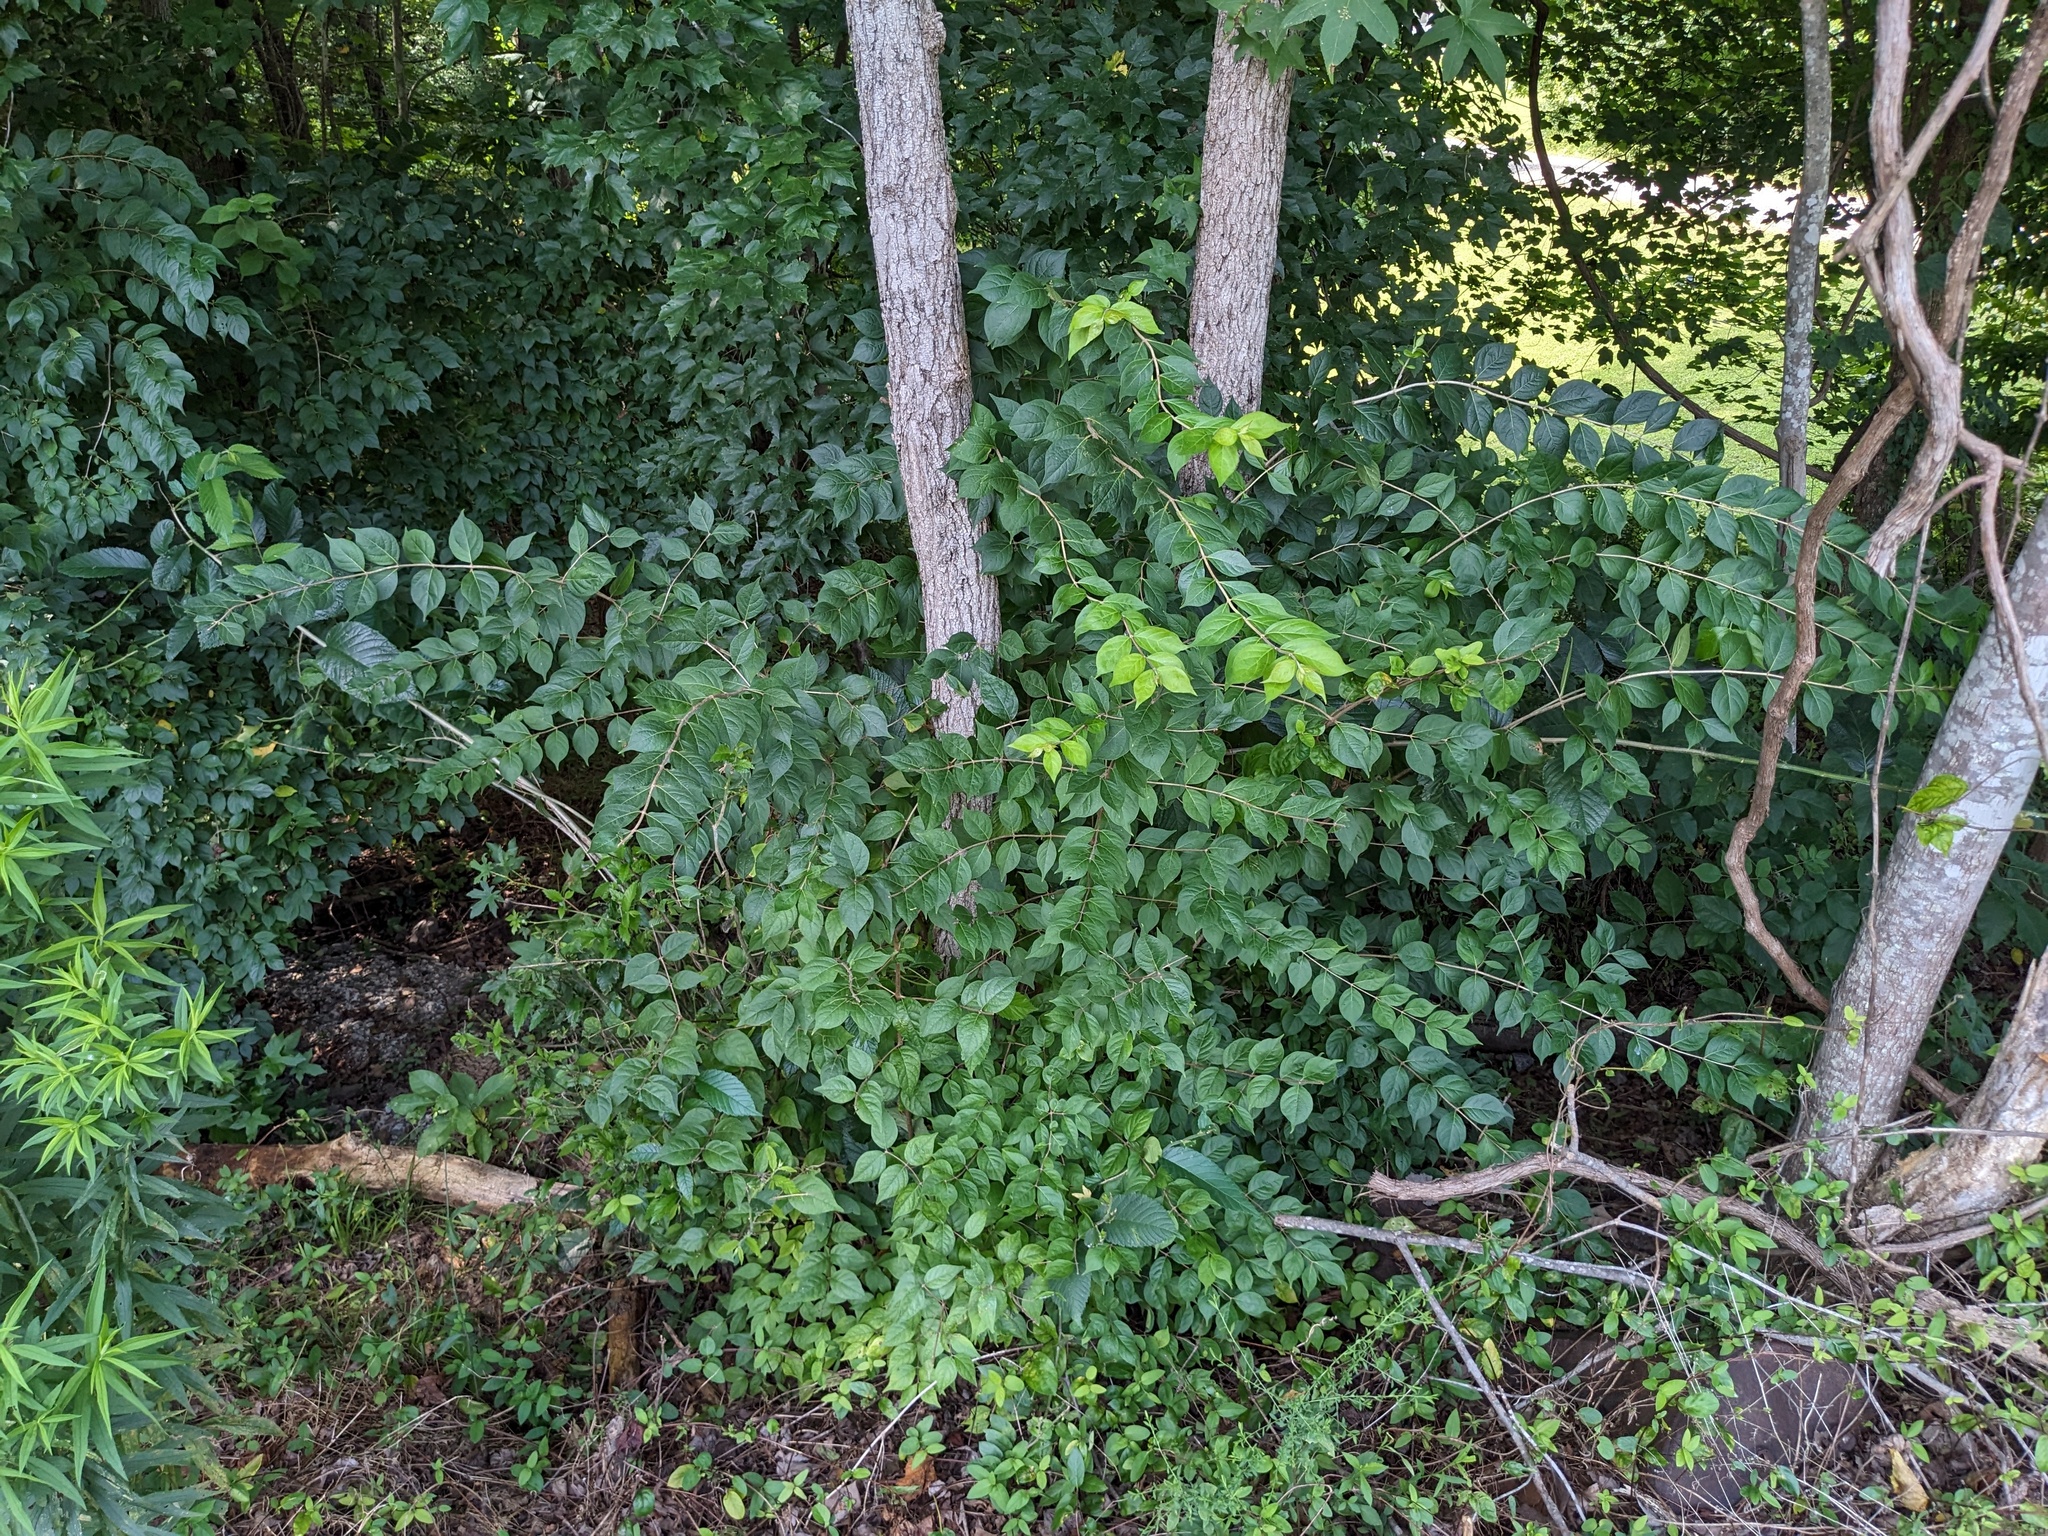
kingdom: Plantae
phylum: Tracheophyta
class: Magnoliopsida
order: Dipsacales
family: Caprifoliaceae
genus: Lonicera
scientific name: Lonicera maackii
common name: Amur honeysuckle
